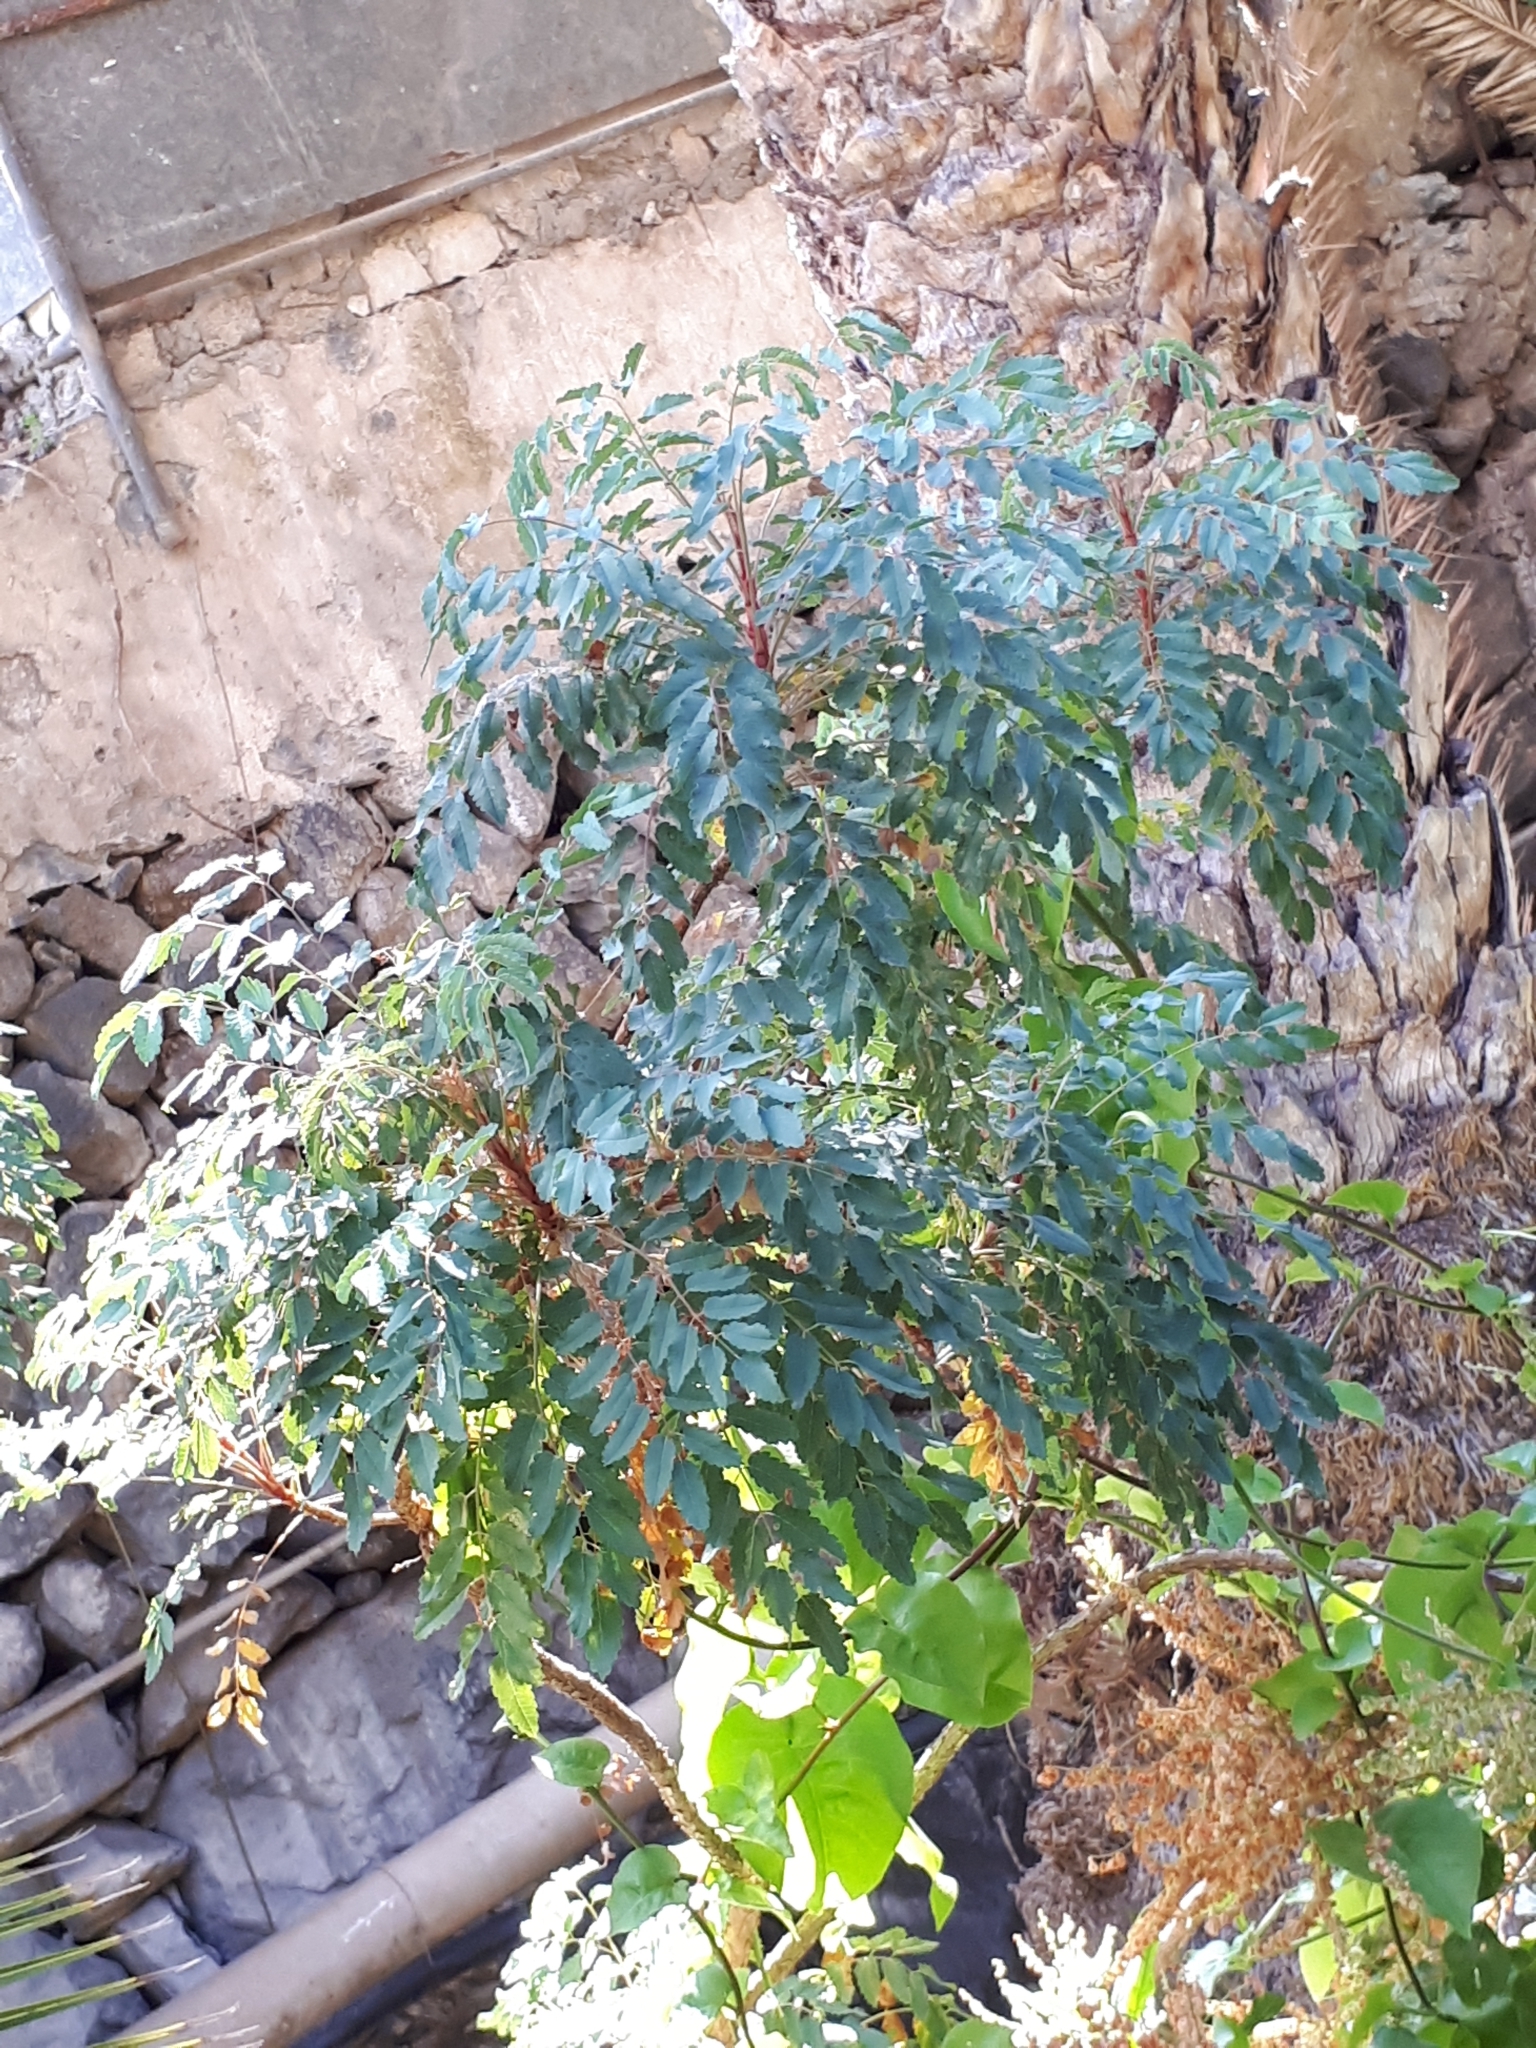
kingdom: Plantae
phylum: Tracheophyta
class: Magnoliopsida
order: Rosales
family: Rosaceae
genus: Marcetella
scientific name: Marcetella moquiniana
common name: Burnet tree
